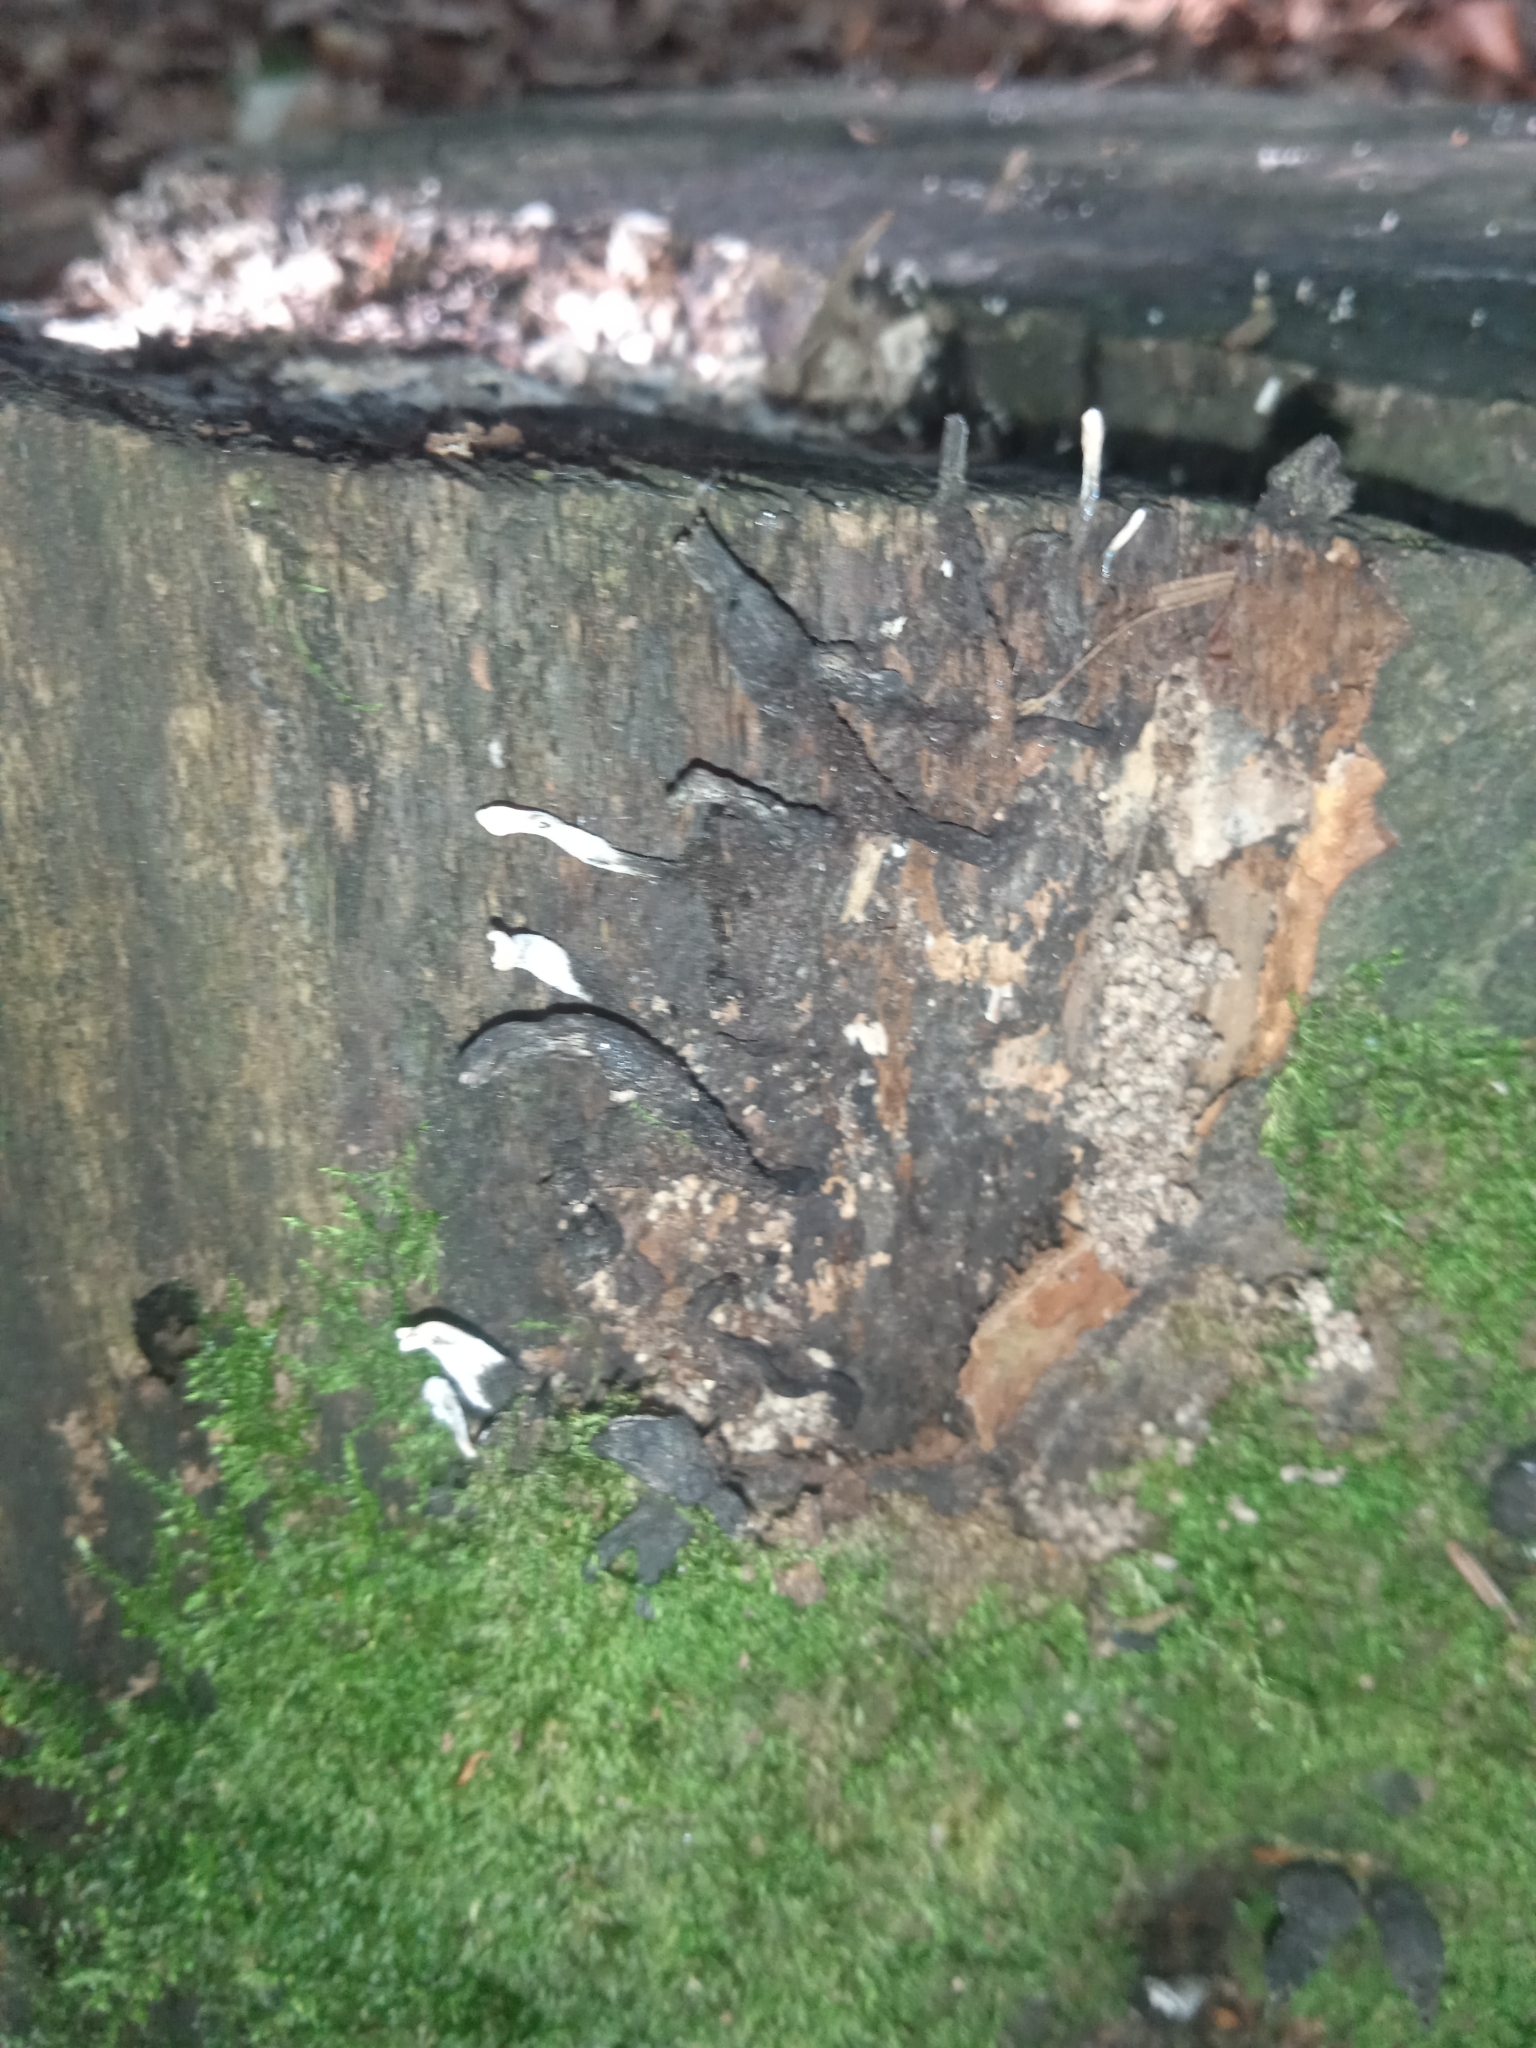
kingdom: Fungi
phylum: Ascomycota
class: Sordariomycetes
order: Xylariales
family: Xylariaceae
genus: Xylaria
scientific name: Xylaria polymorpha
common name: Dead man's fingers
